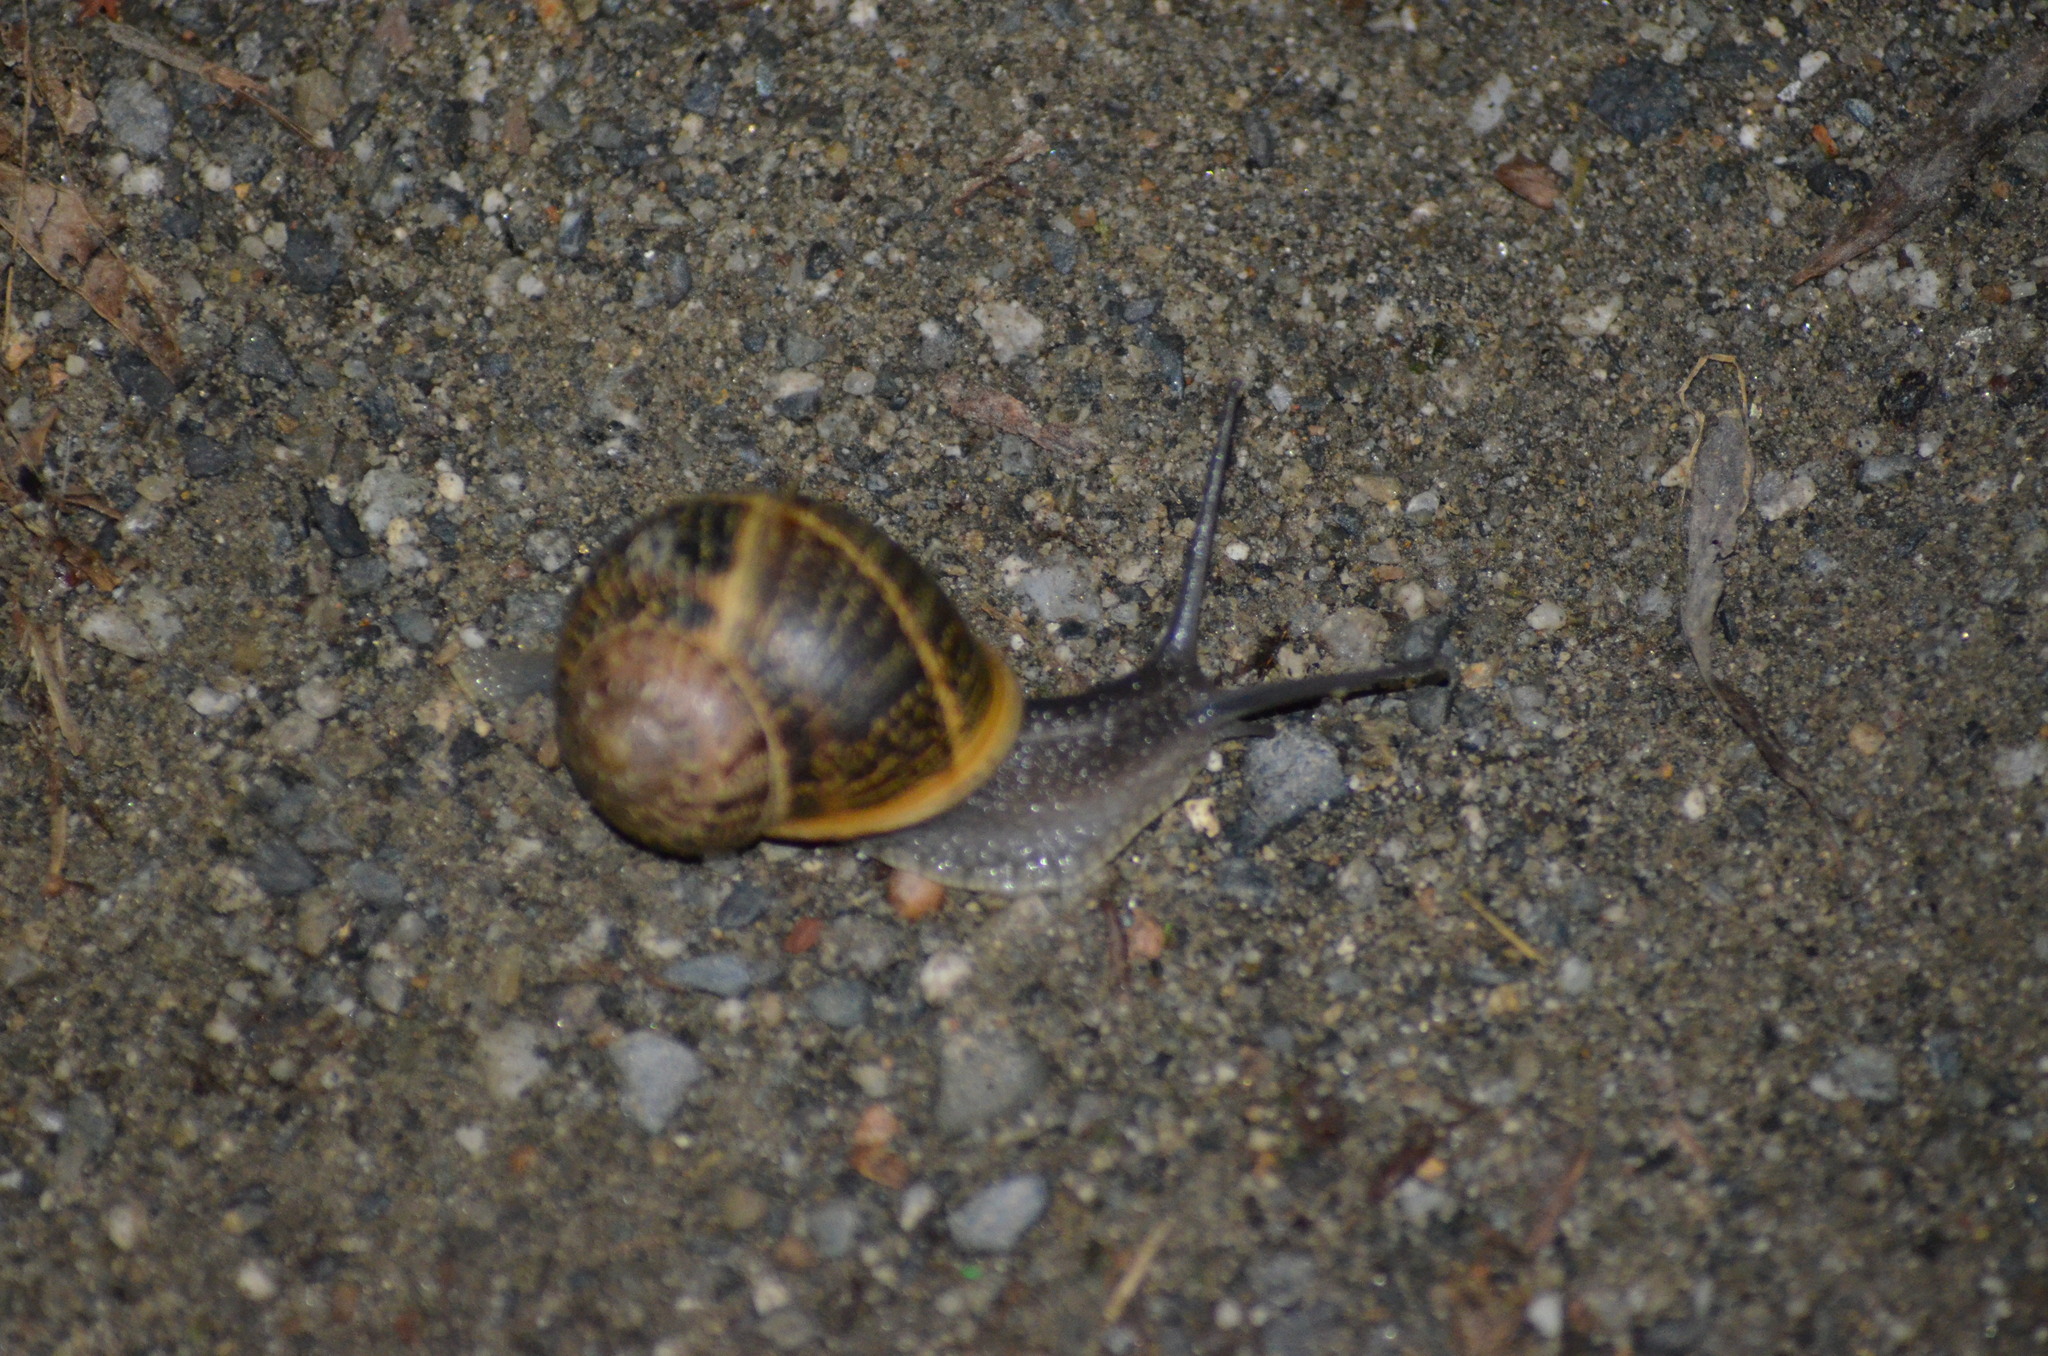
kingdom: Animalia
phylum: Mollusca
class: Gastropoda
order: Stylommatophora
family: Helicidae
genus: Cornu
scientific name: Cornu aspersum
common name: Brown garden snail
